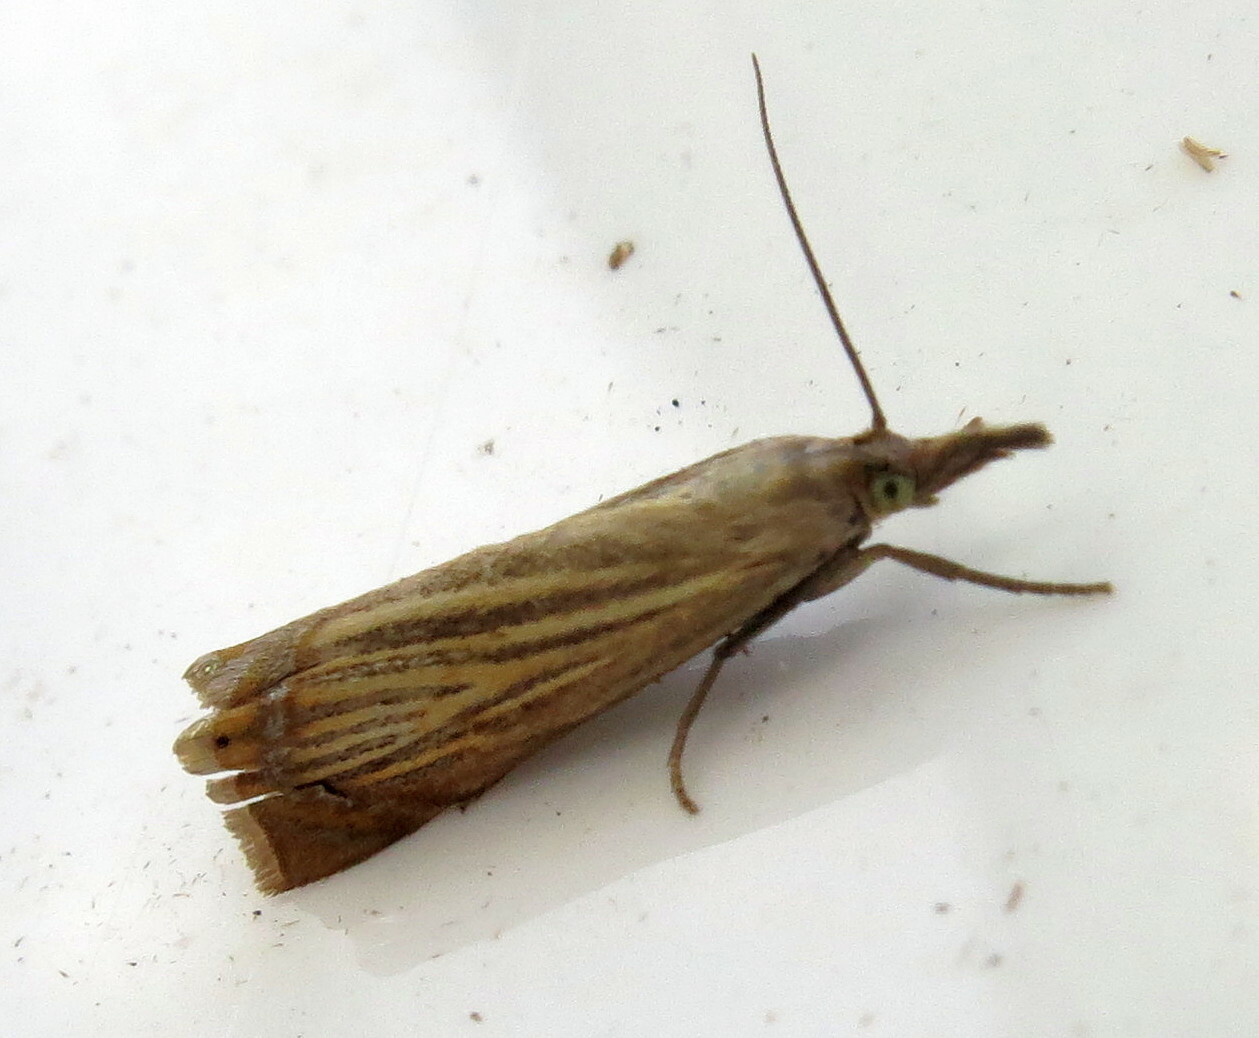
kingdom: Animalia
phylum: Arthropoda
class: Insecta
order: Lepidoptera
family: Crambidae
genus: Chrysoteuchia
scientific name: Chrysoteuchia culmella
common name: Garden grass-veneer
